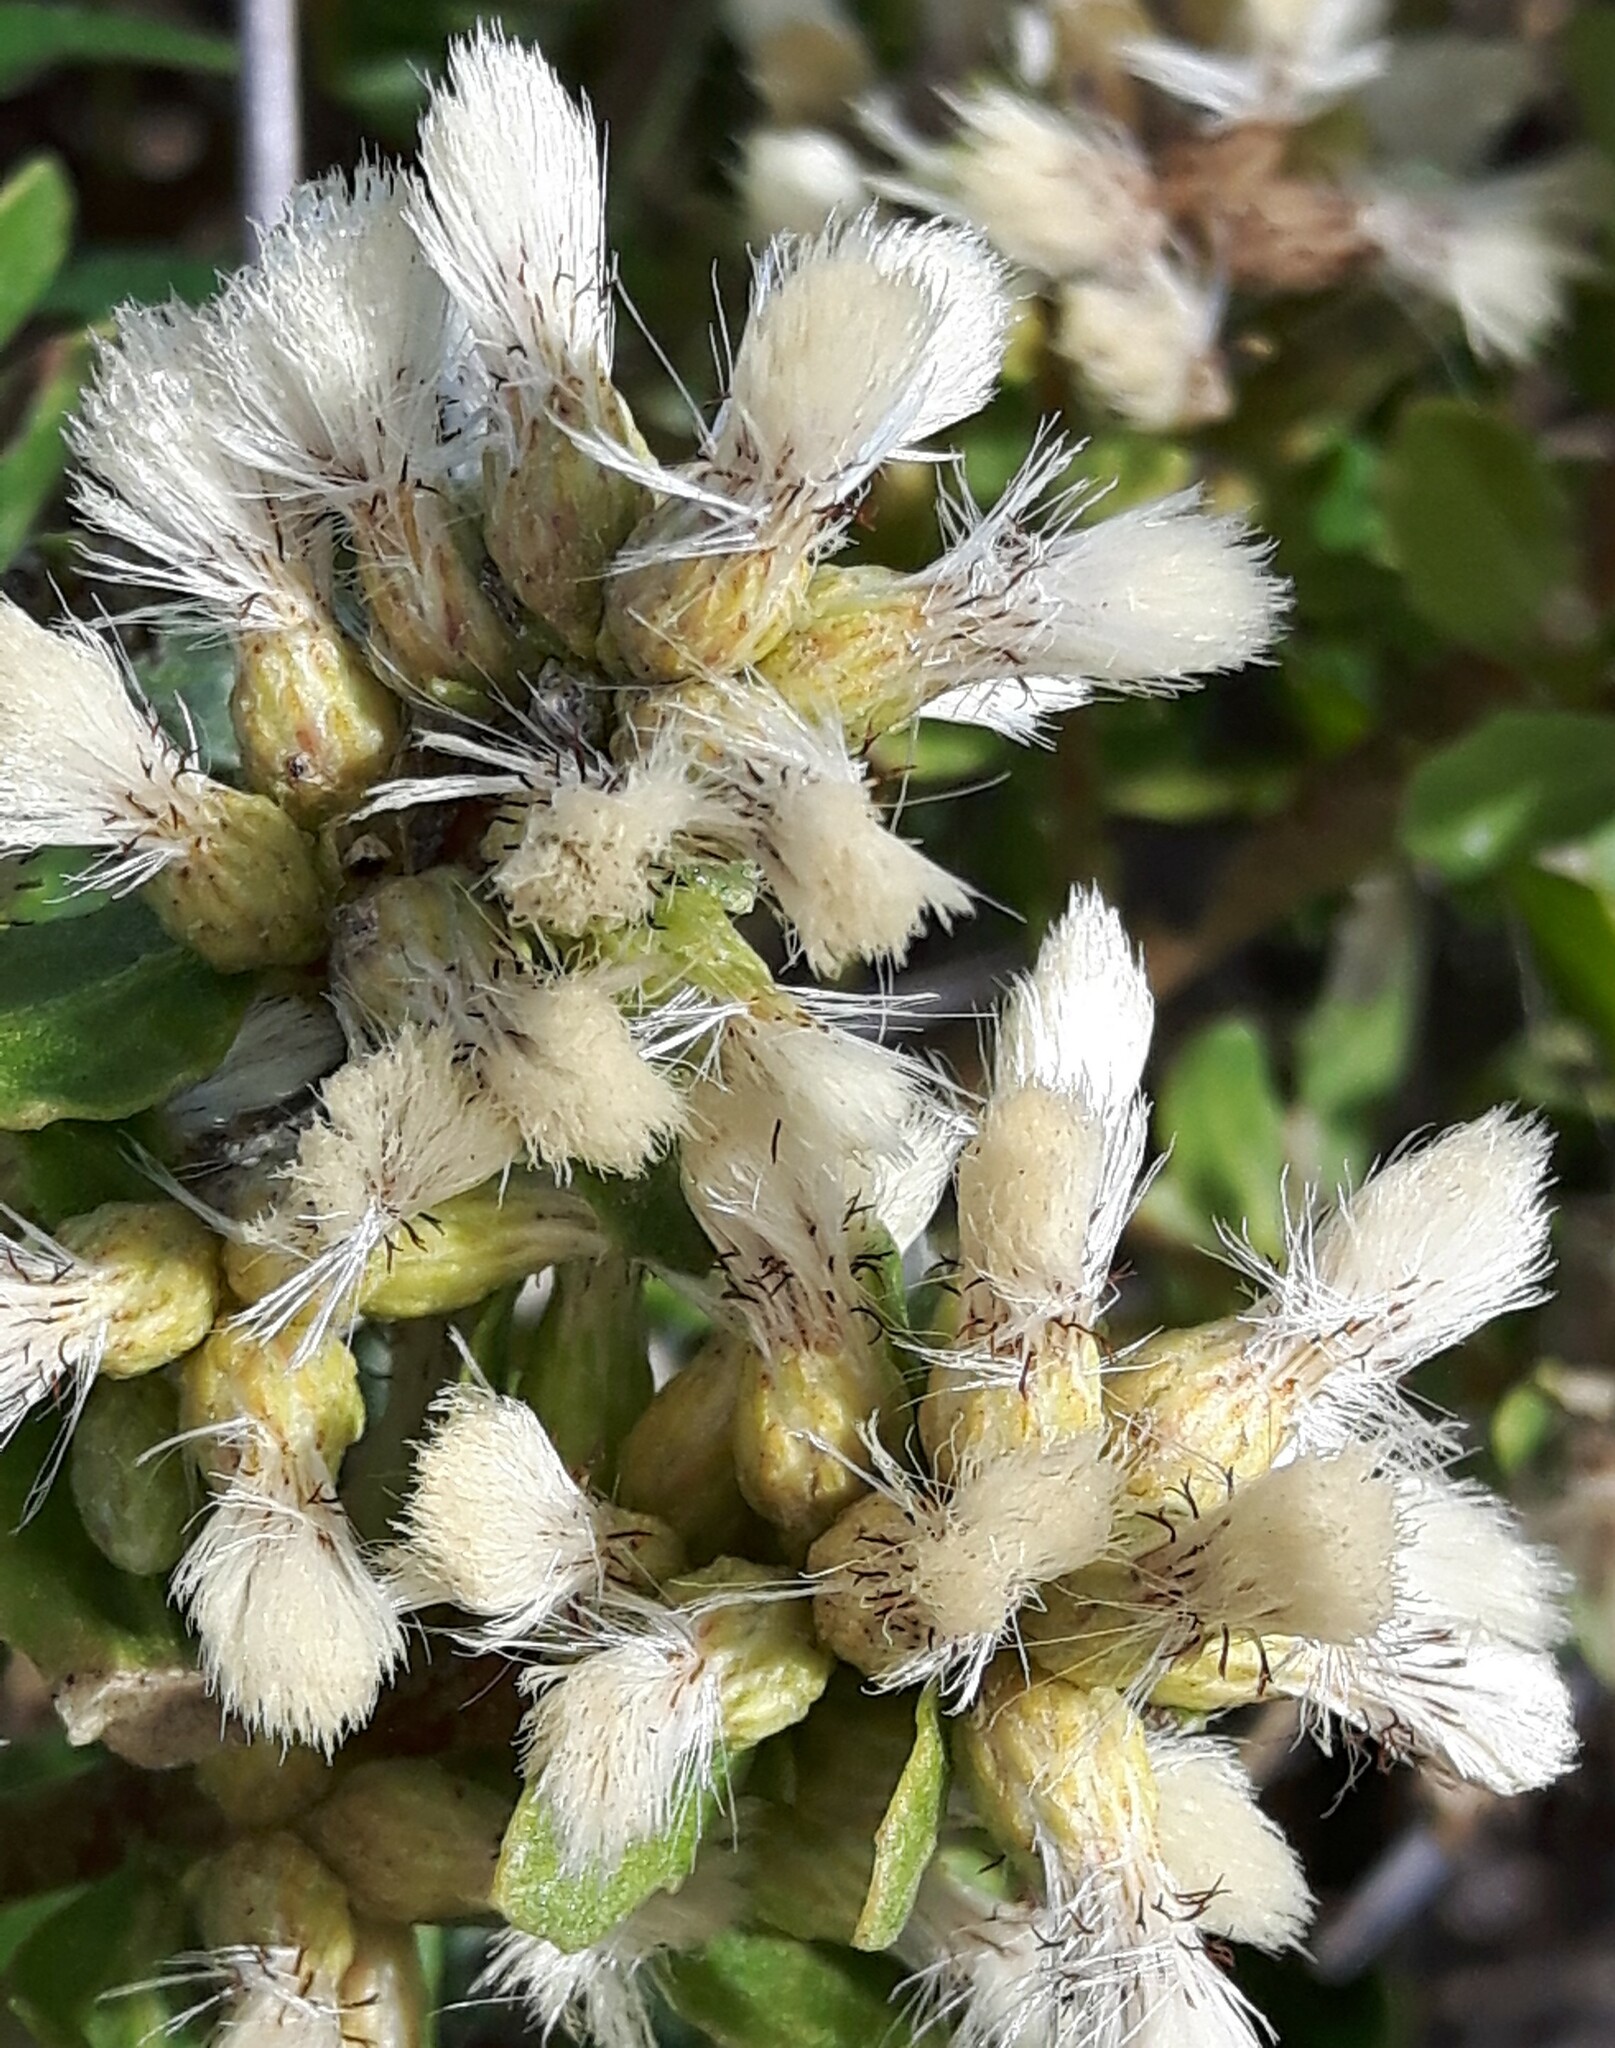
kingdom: Plantae
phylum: Tracheophyta
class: Magnoliopsida
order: Asterales
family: Asteraceae
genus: Baccharis
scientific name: Baccharis pilularis
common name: Coyotebrush
